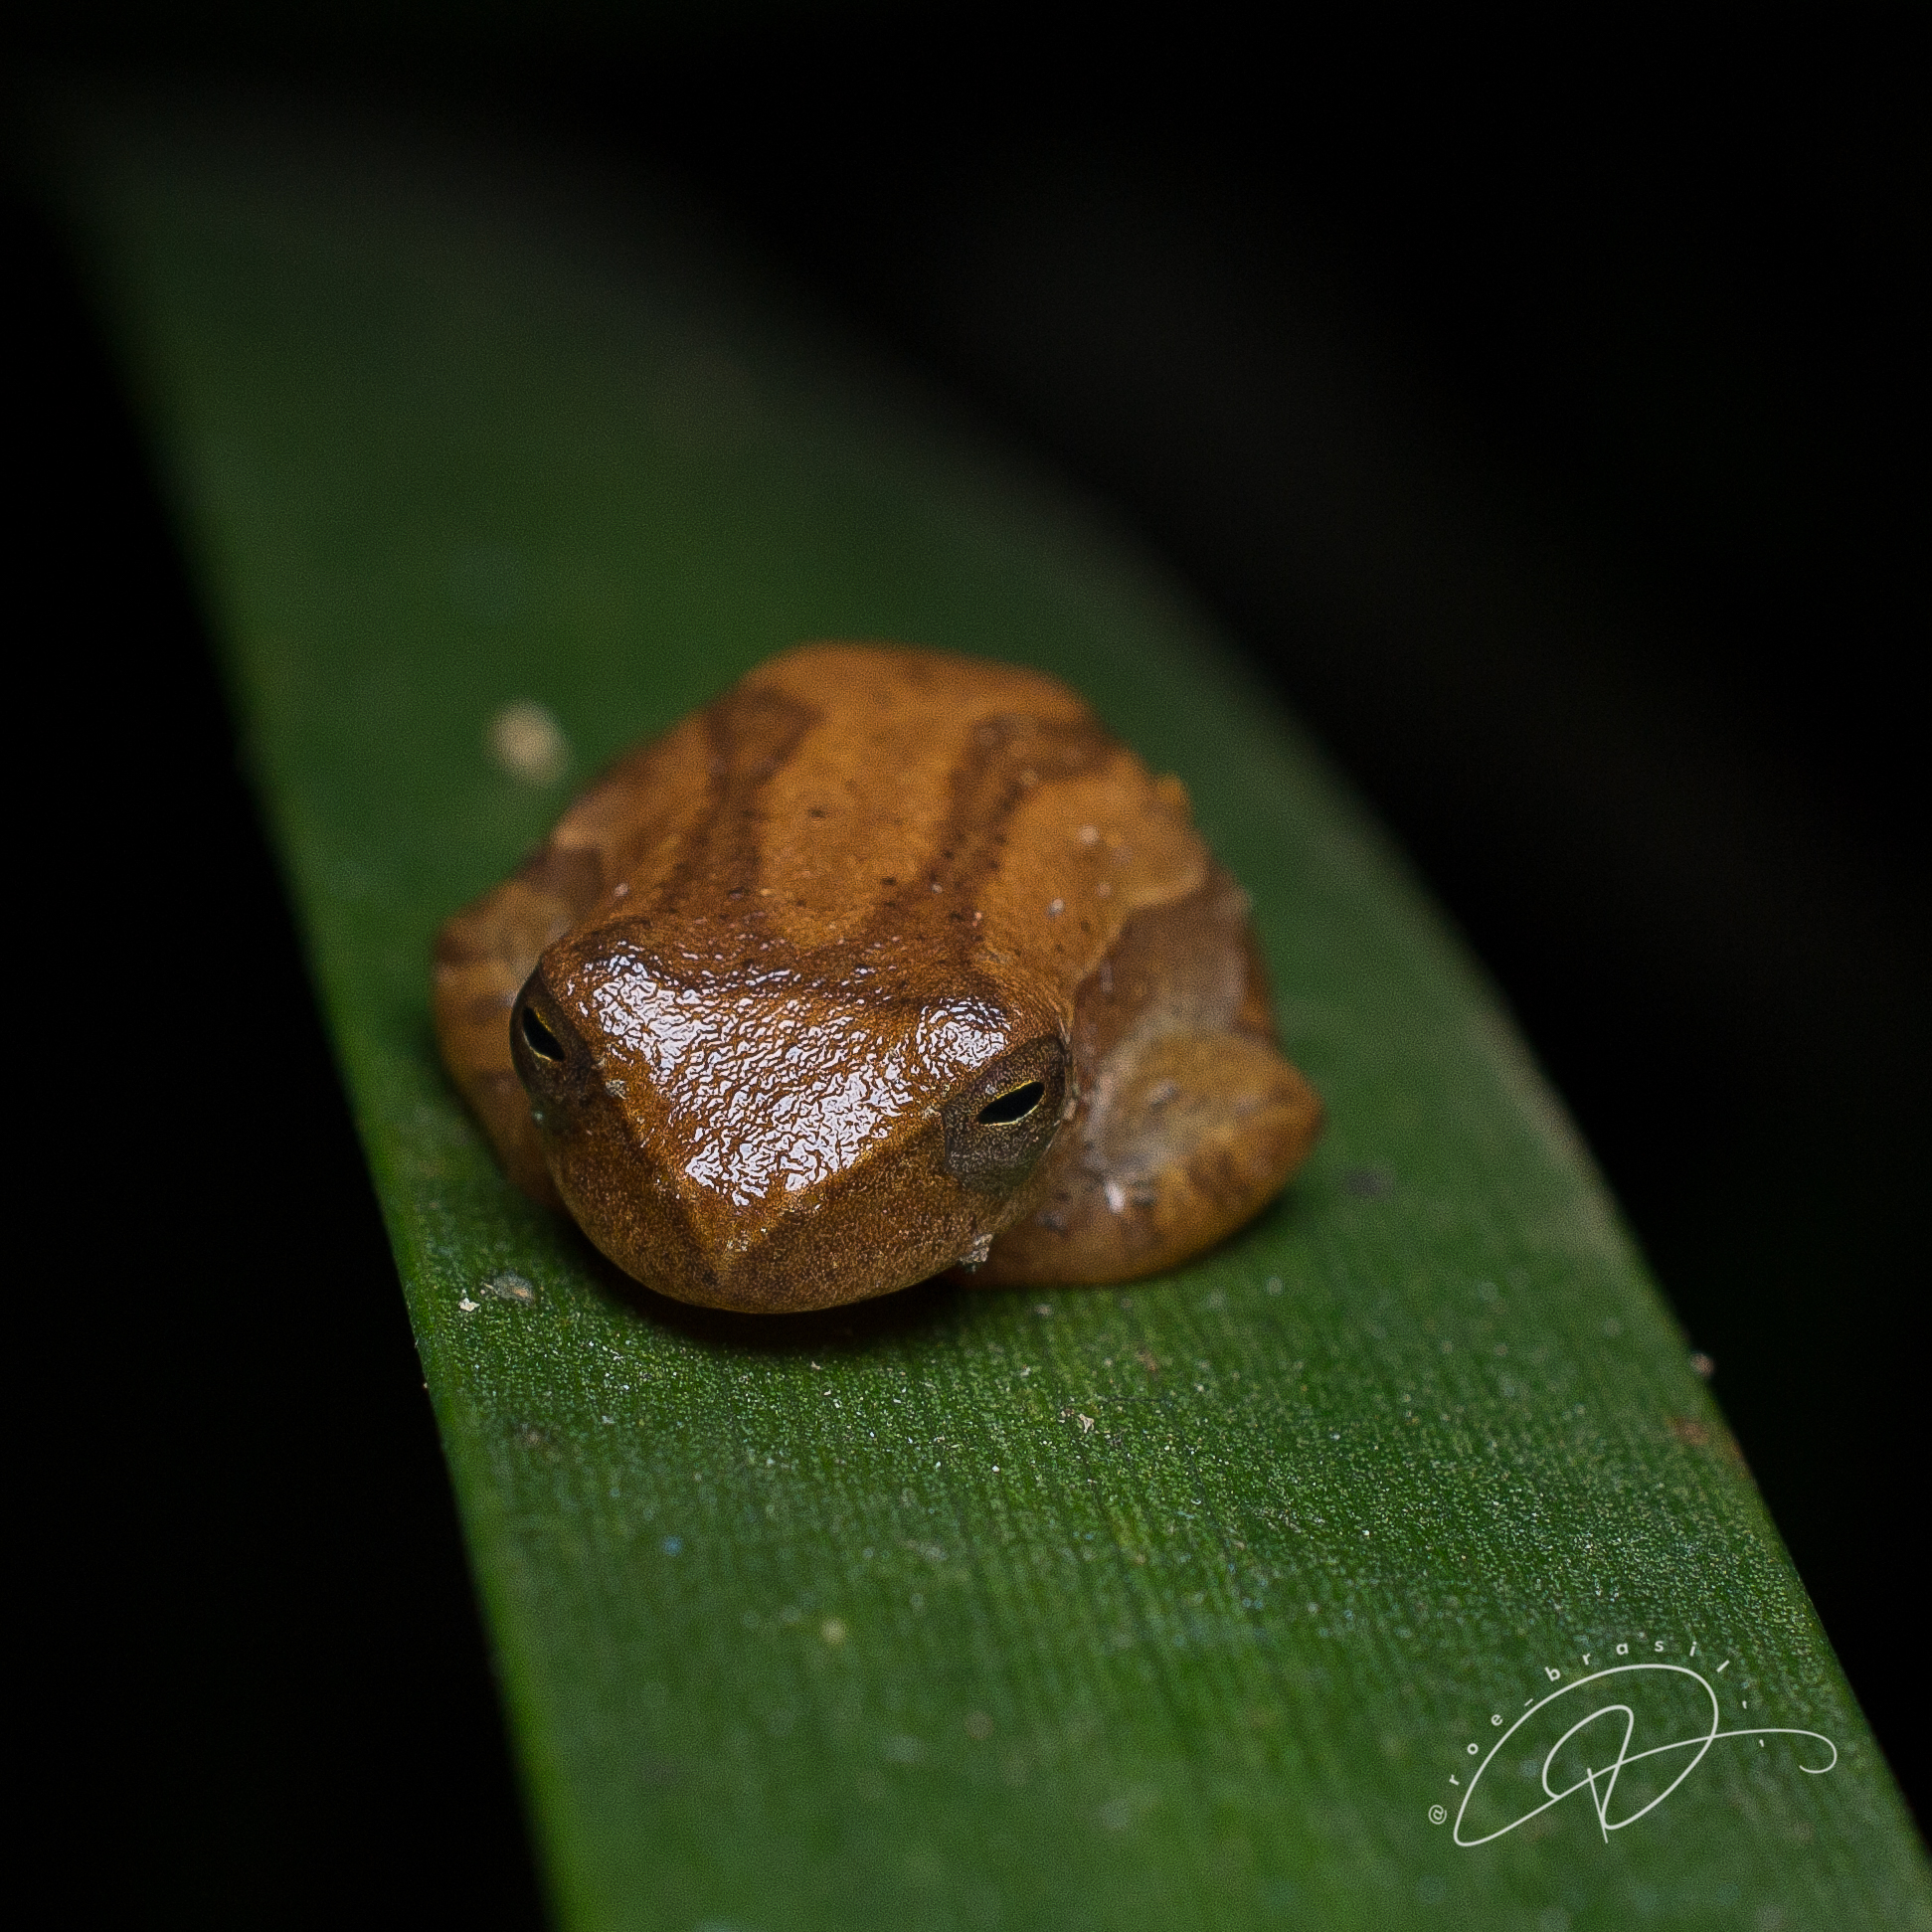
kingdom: Animalia
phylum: Chordata
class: Amphibia
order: Anura
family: Hylidae
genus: Dendropsophus
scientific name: Dendropsophus minutus
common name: Lesser treefrog
